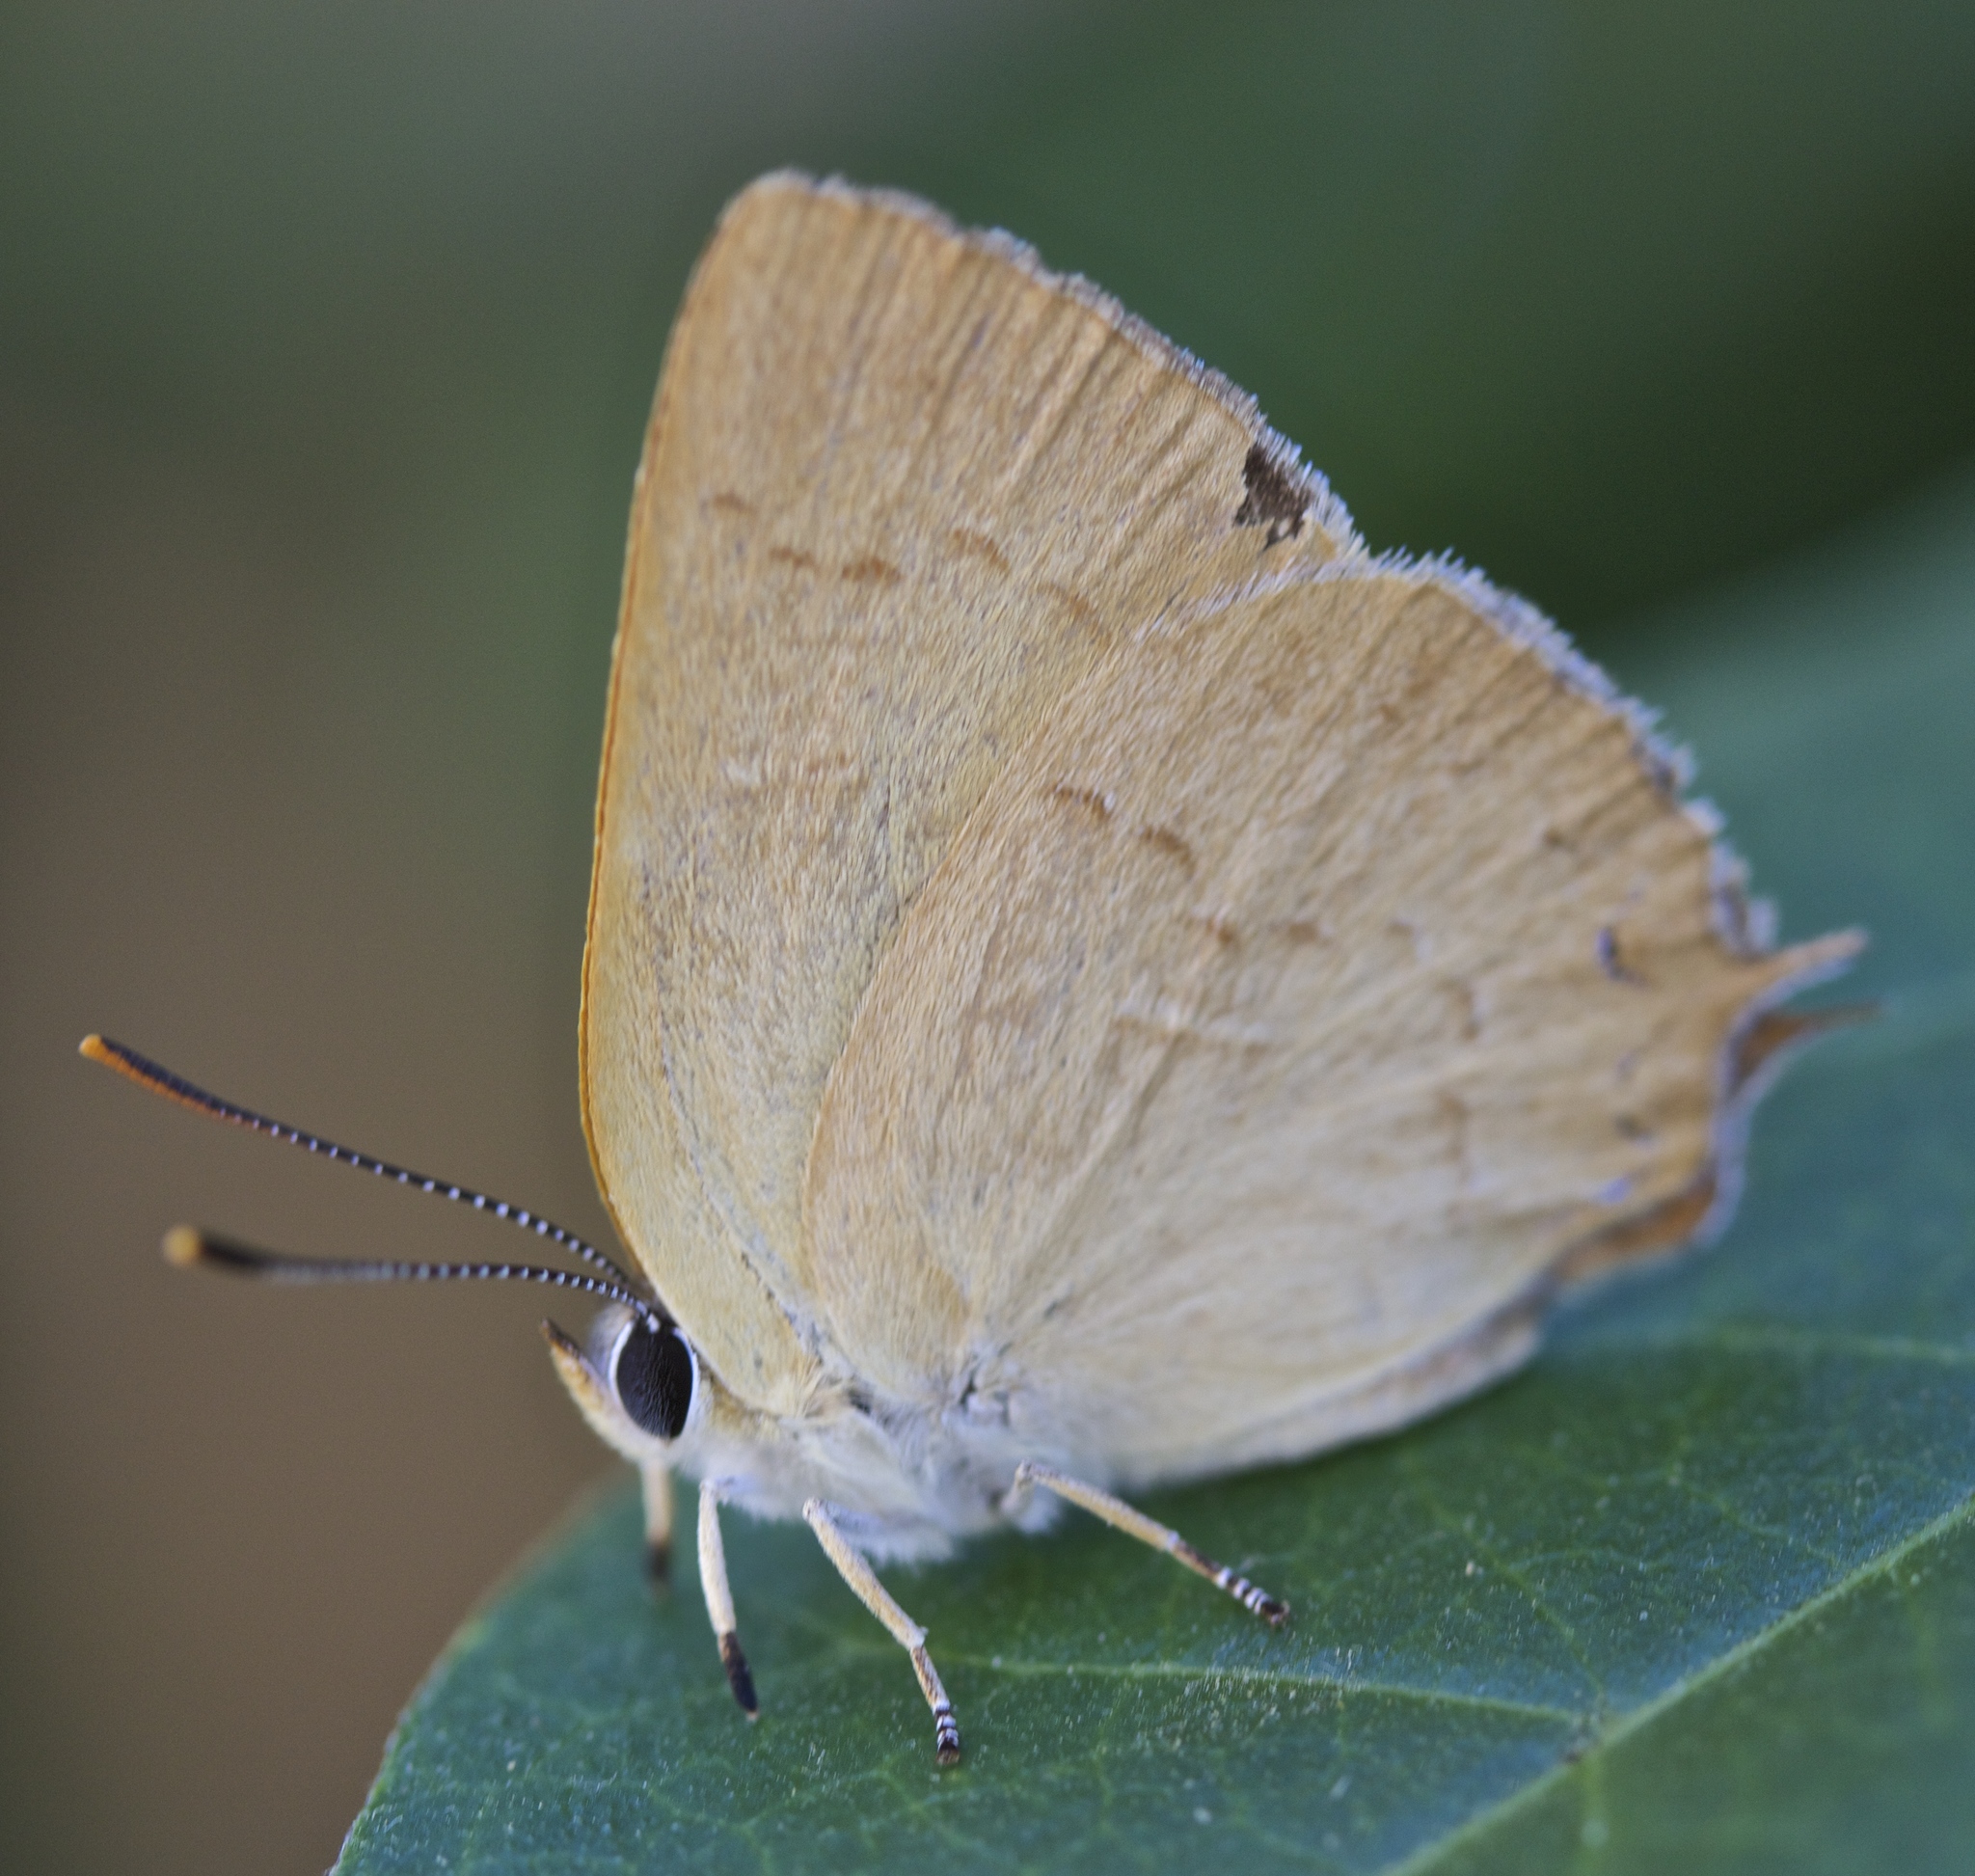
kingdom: Animalia
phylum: Arthropoda
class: Insecta
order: Lepidoptera
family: Lycaenidae
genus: Habrodais
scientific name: Habrodais grunus
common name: Golden hairstreak
